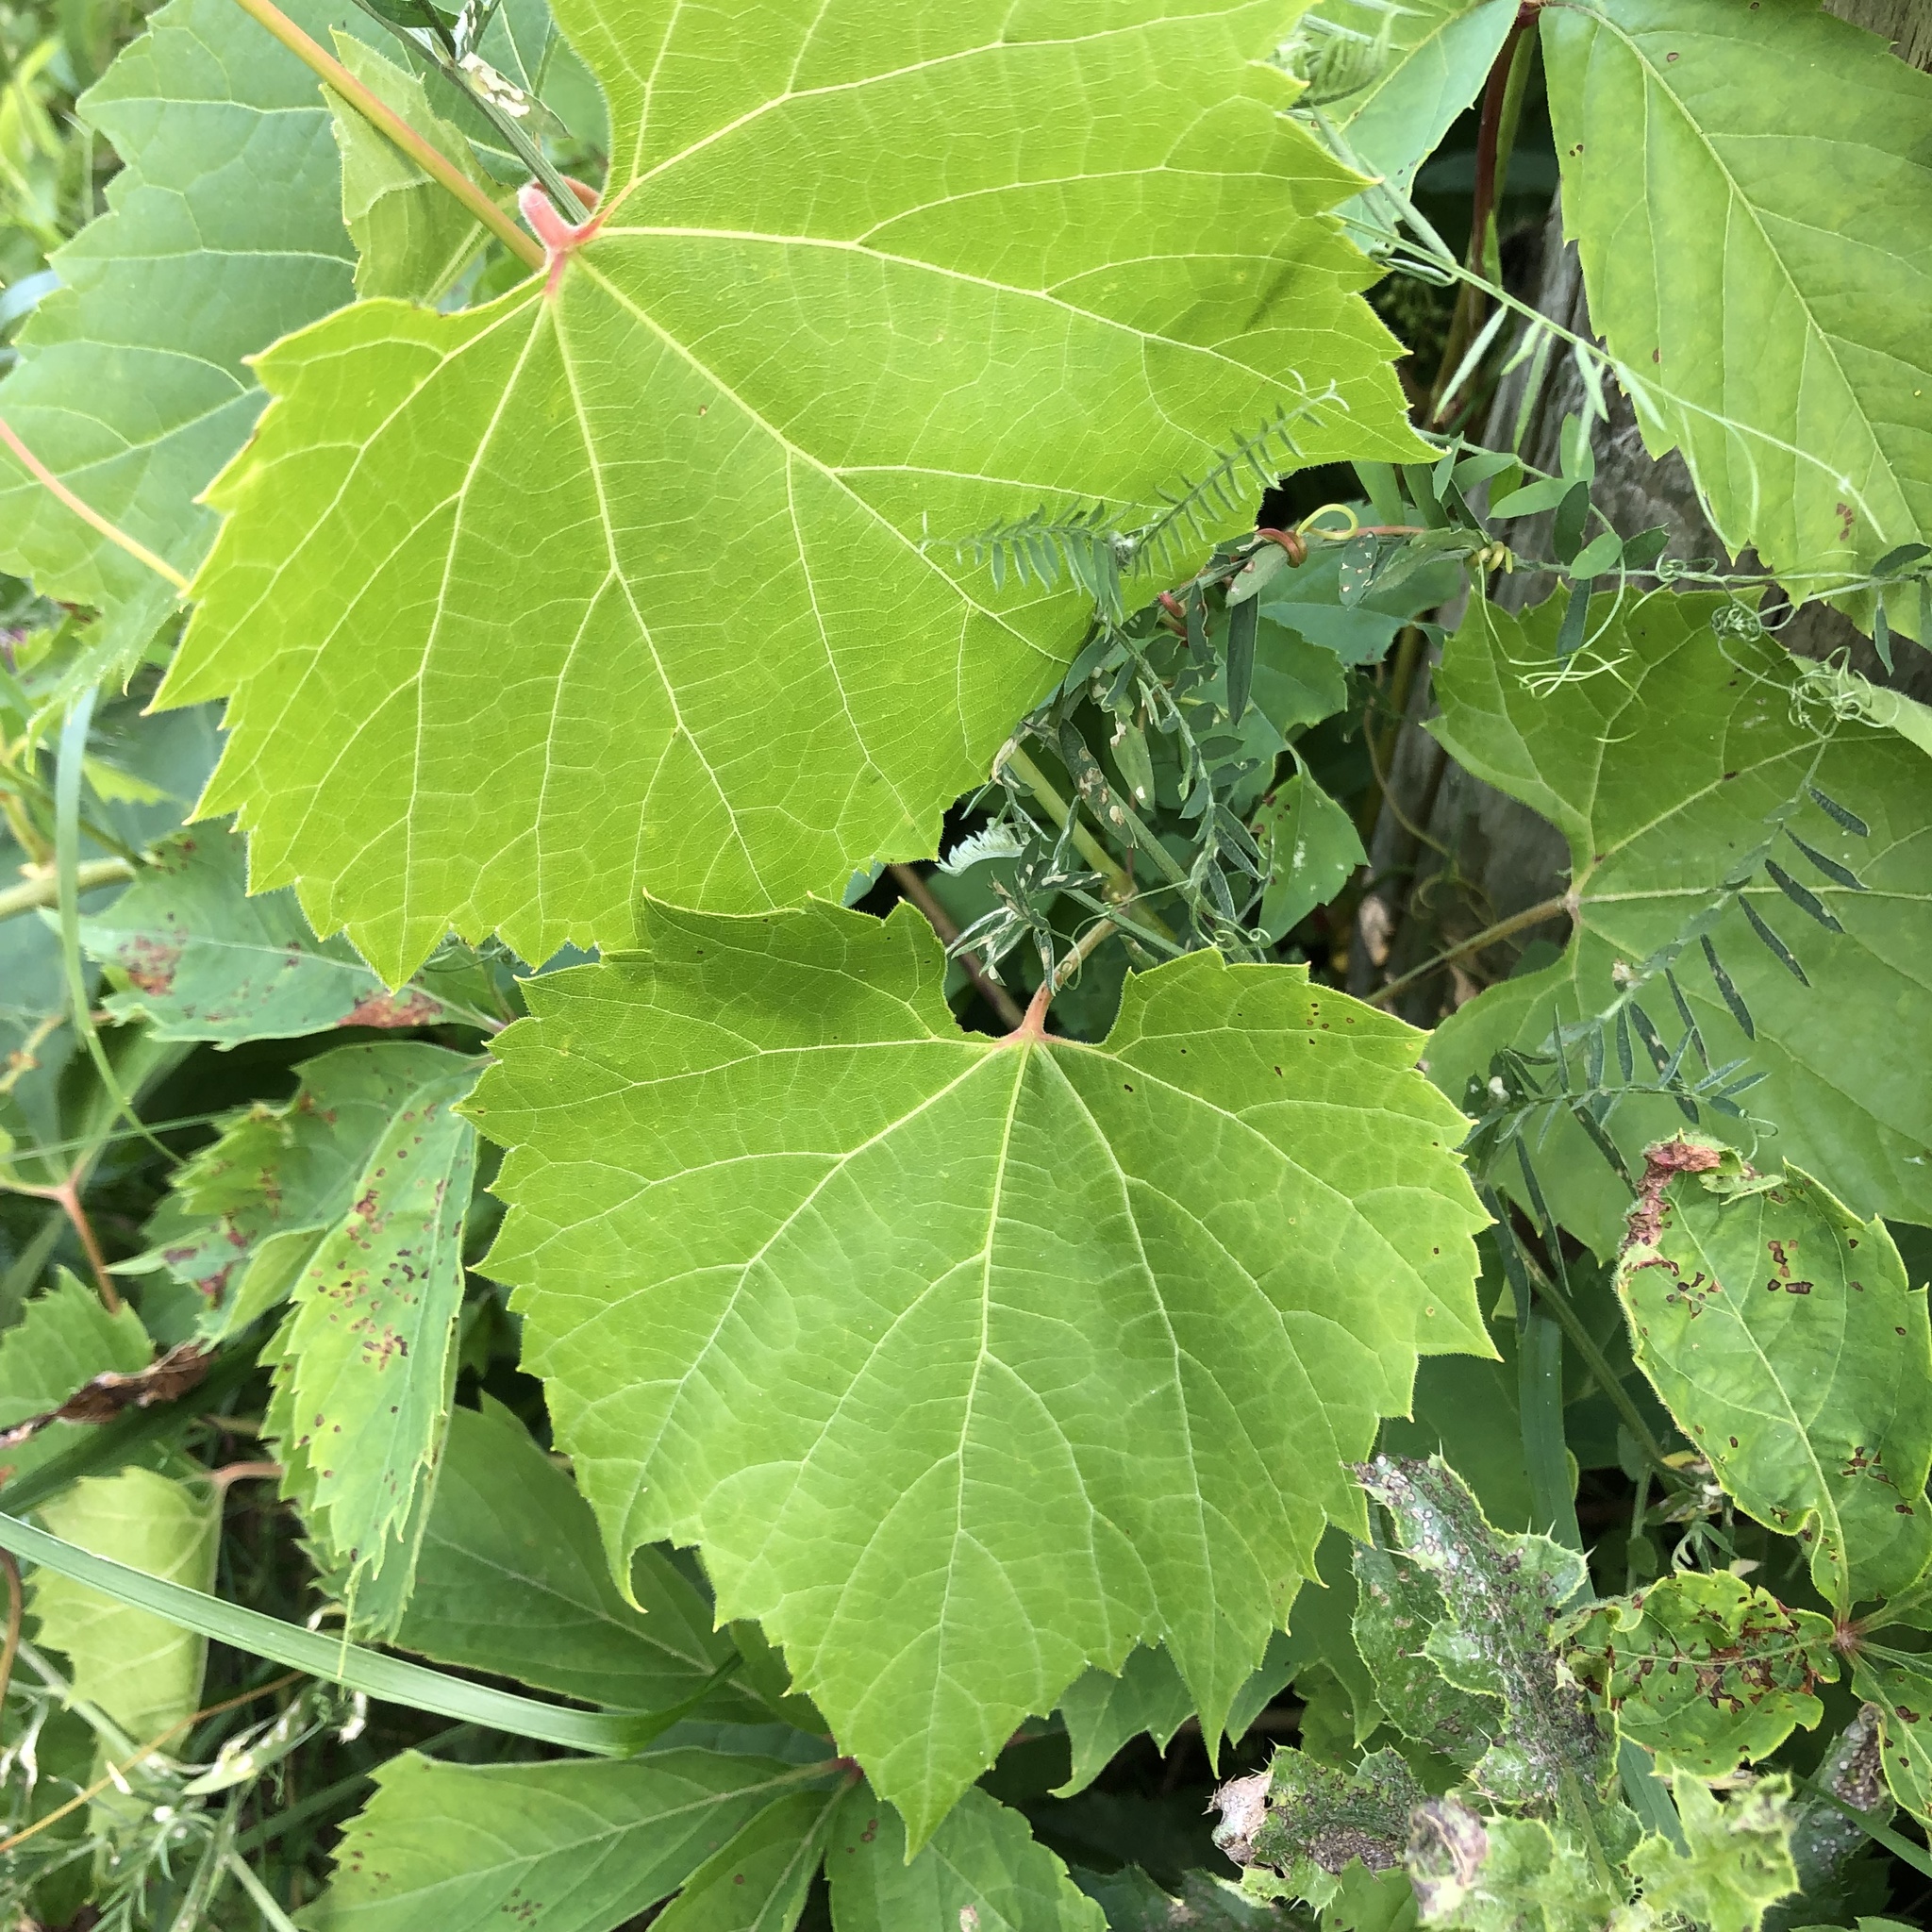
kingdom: Plantae
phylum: Tracheophyta
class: Magnoliopsida
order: Vitales
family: Vitaceae
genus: Vitis
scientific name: Vitis riparia
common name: Frost grape
